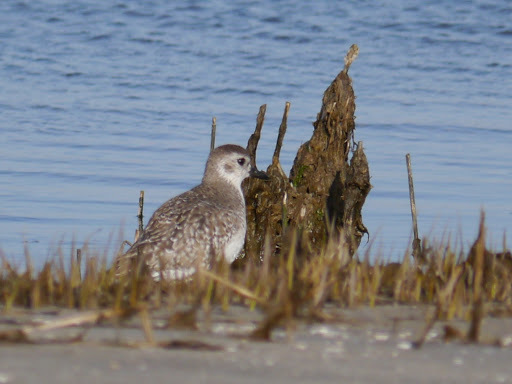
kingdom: Animalia
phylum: Chordata
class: Aves
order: Charadriiformes
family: Charadriidae
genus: Pluvialis
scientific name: Pluvialis squatarola
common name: Grey plover
